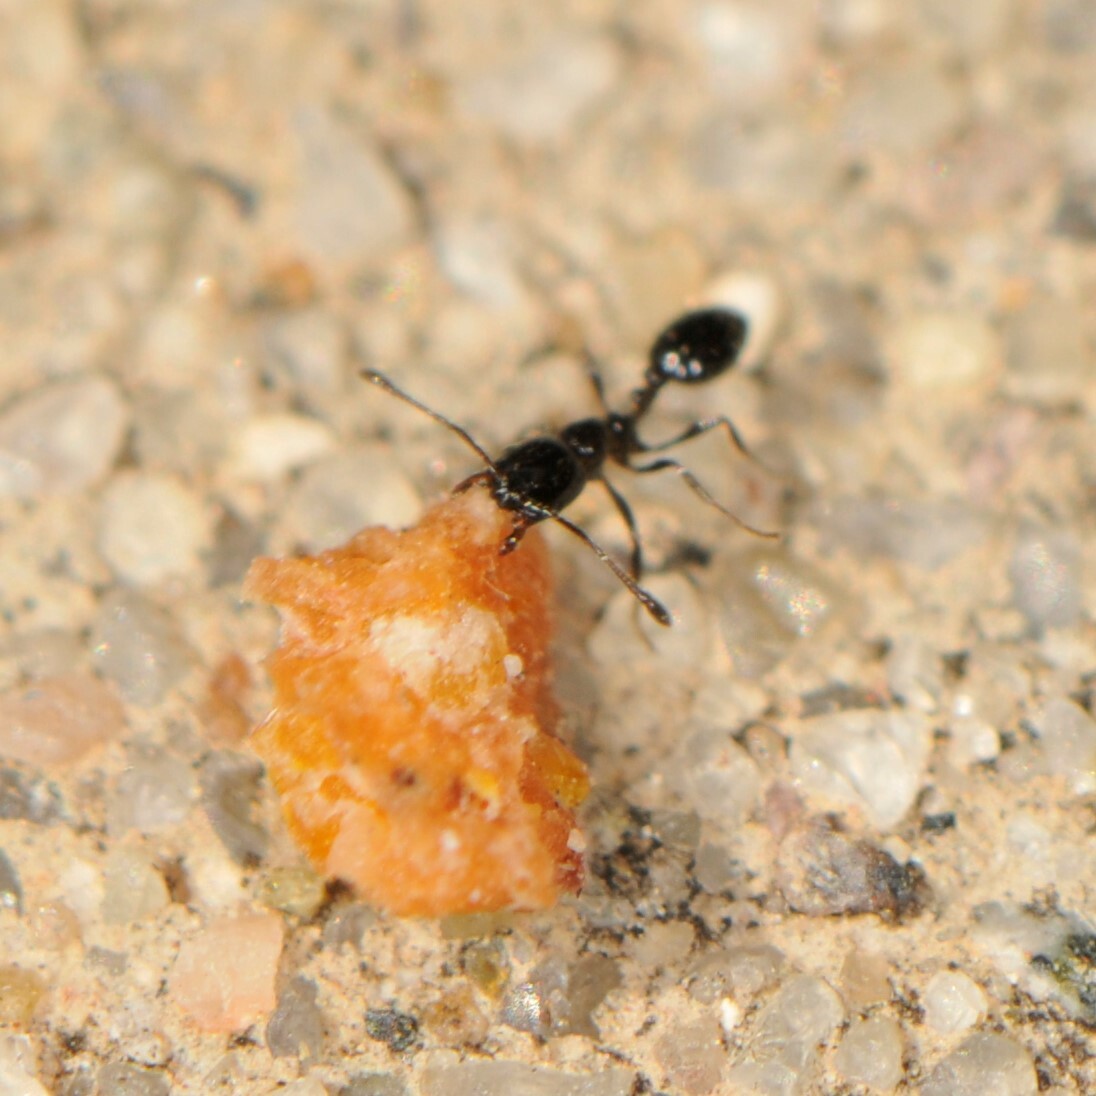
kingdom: Animalia
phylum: Arthropoda
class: Insecta
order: Hymenoptera
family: Formicidae
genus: Monomorium
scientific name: Monomorium
